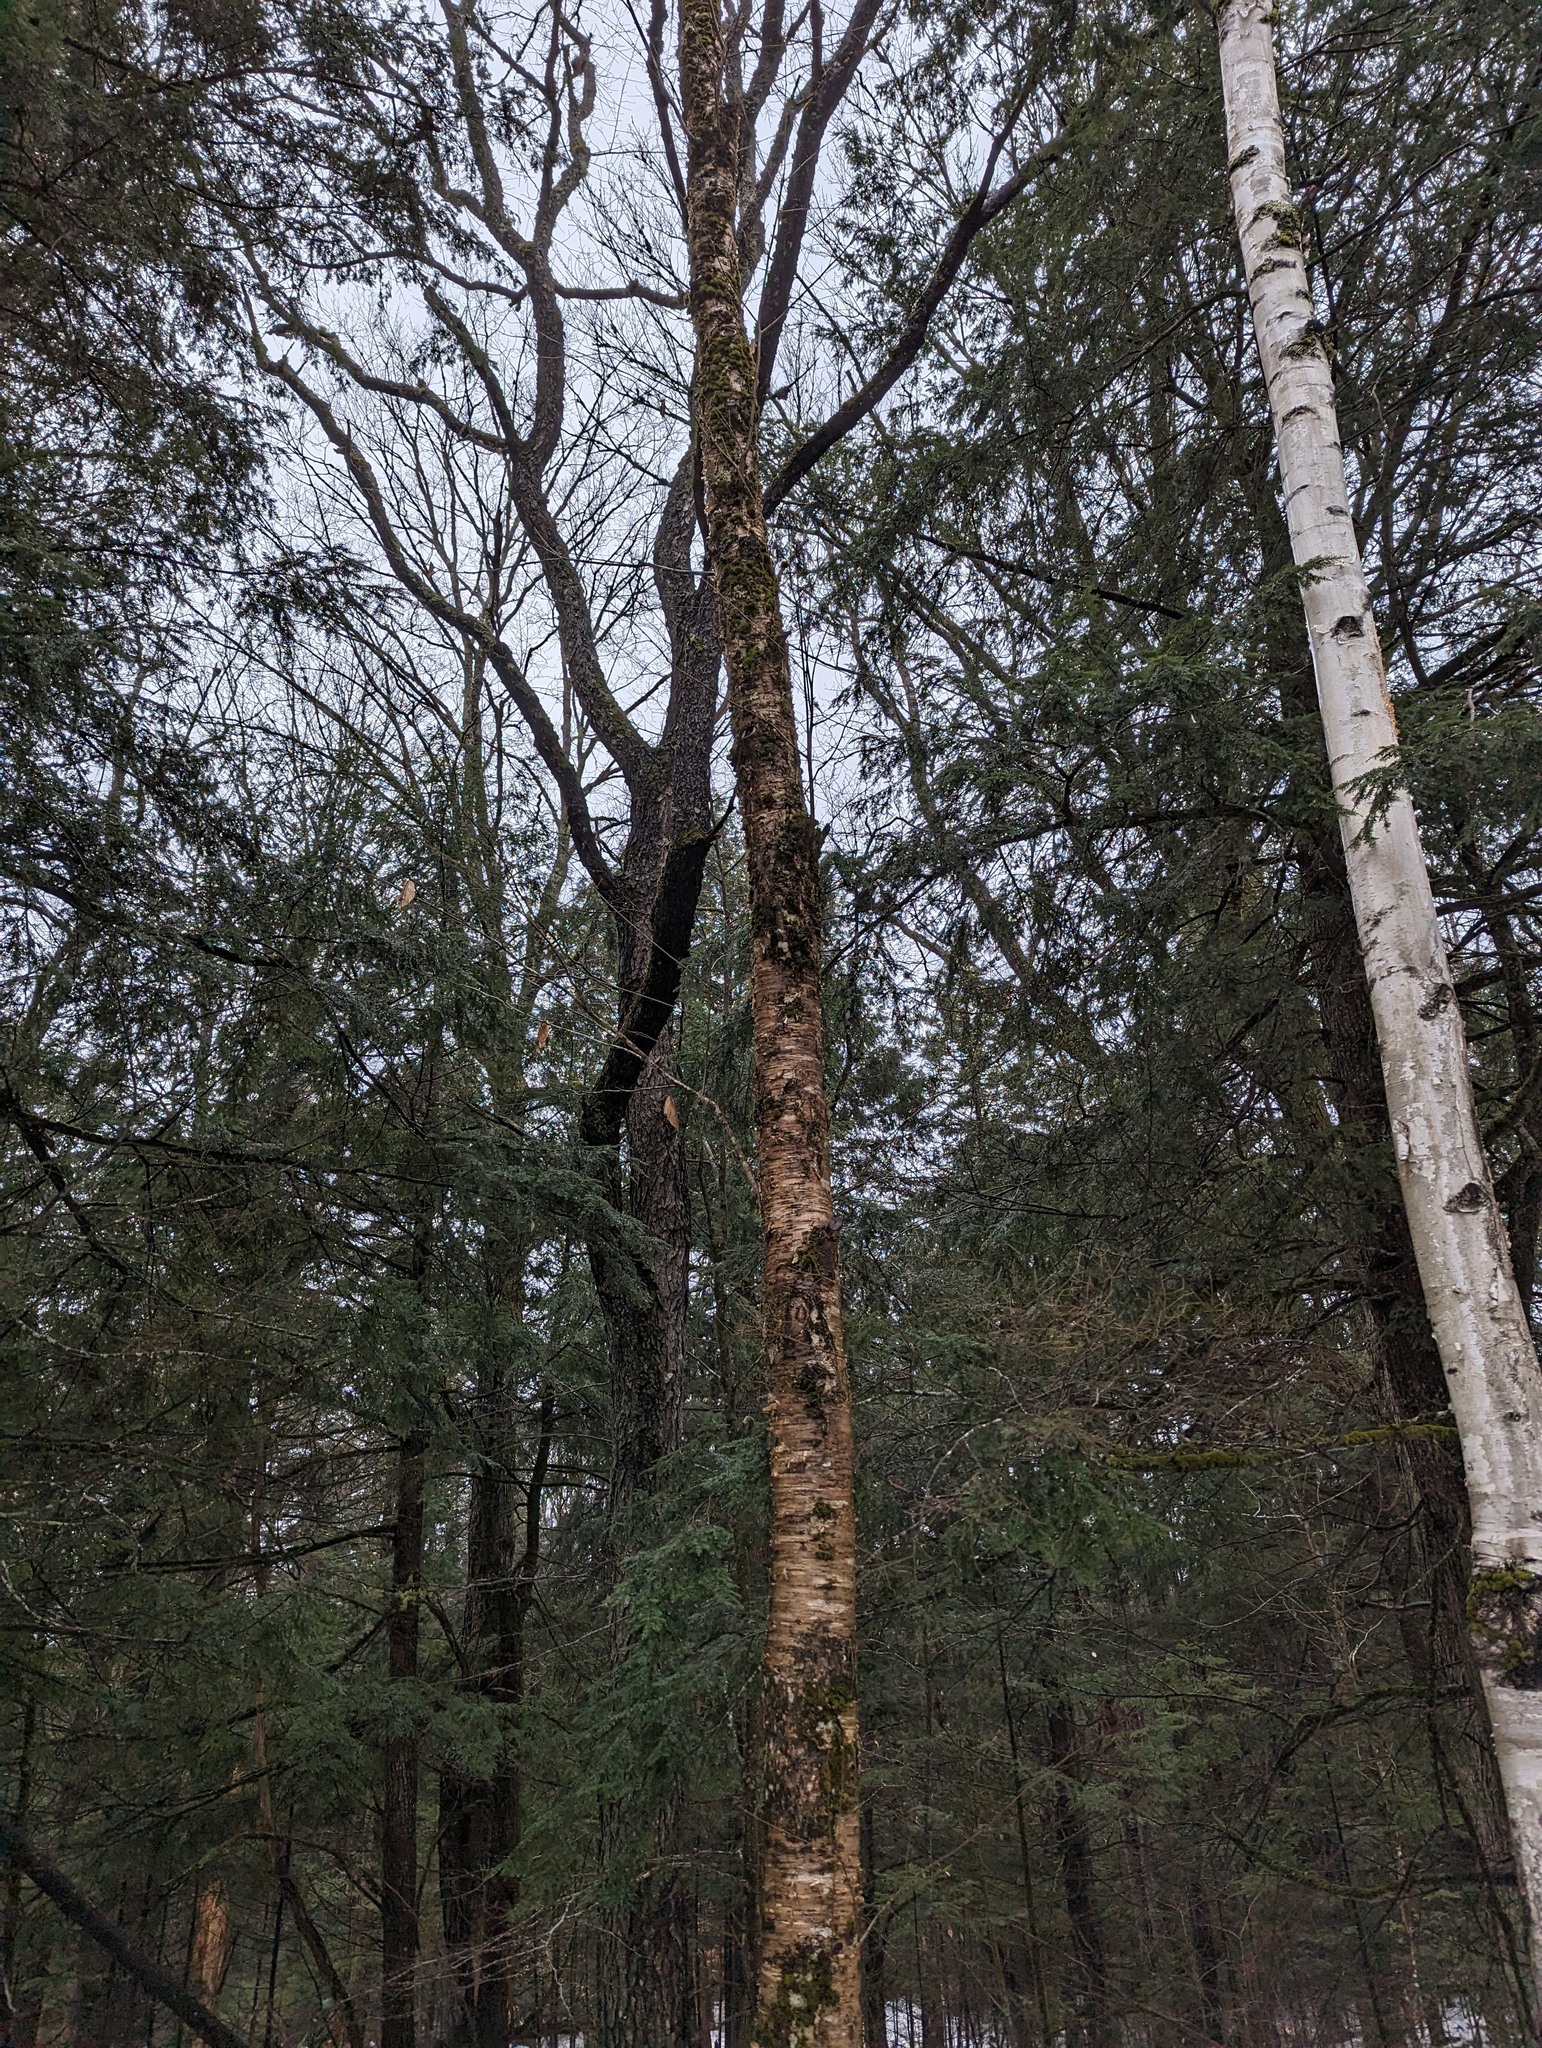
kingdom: Plantae
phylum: Tracheophyta
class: Magnoliopsida
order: Fagales
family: Betulaceae
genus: Betula
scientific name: Betula alleghaniensis
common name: Yellow birch
